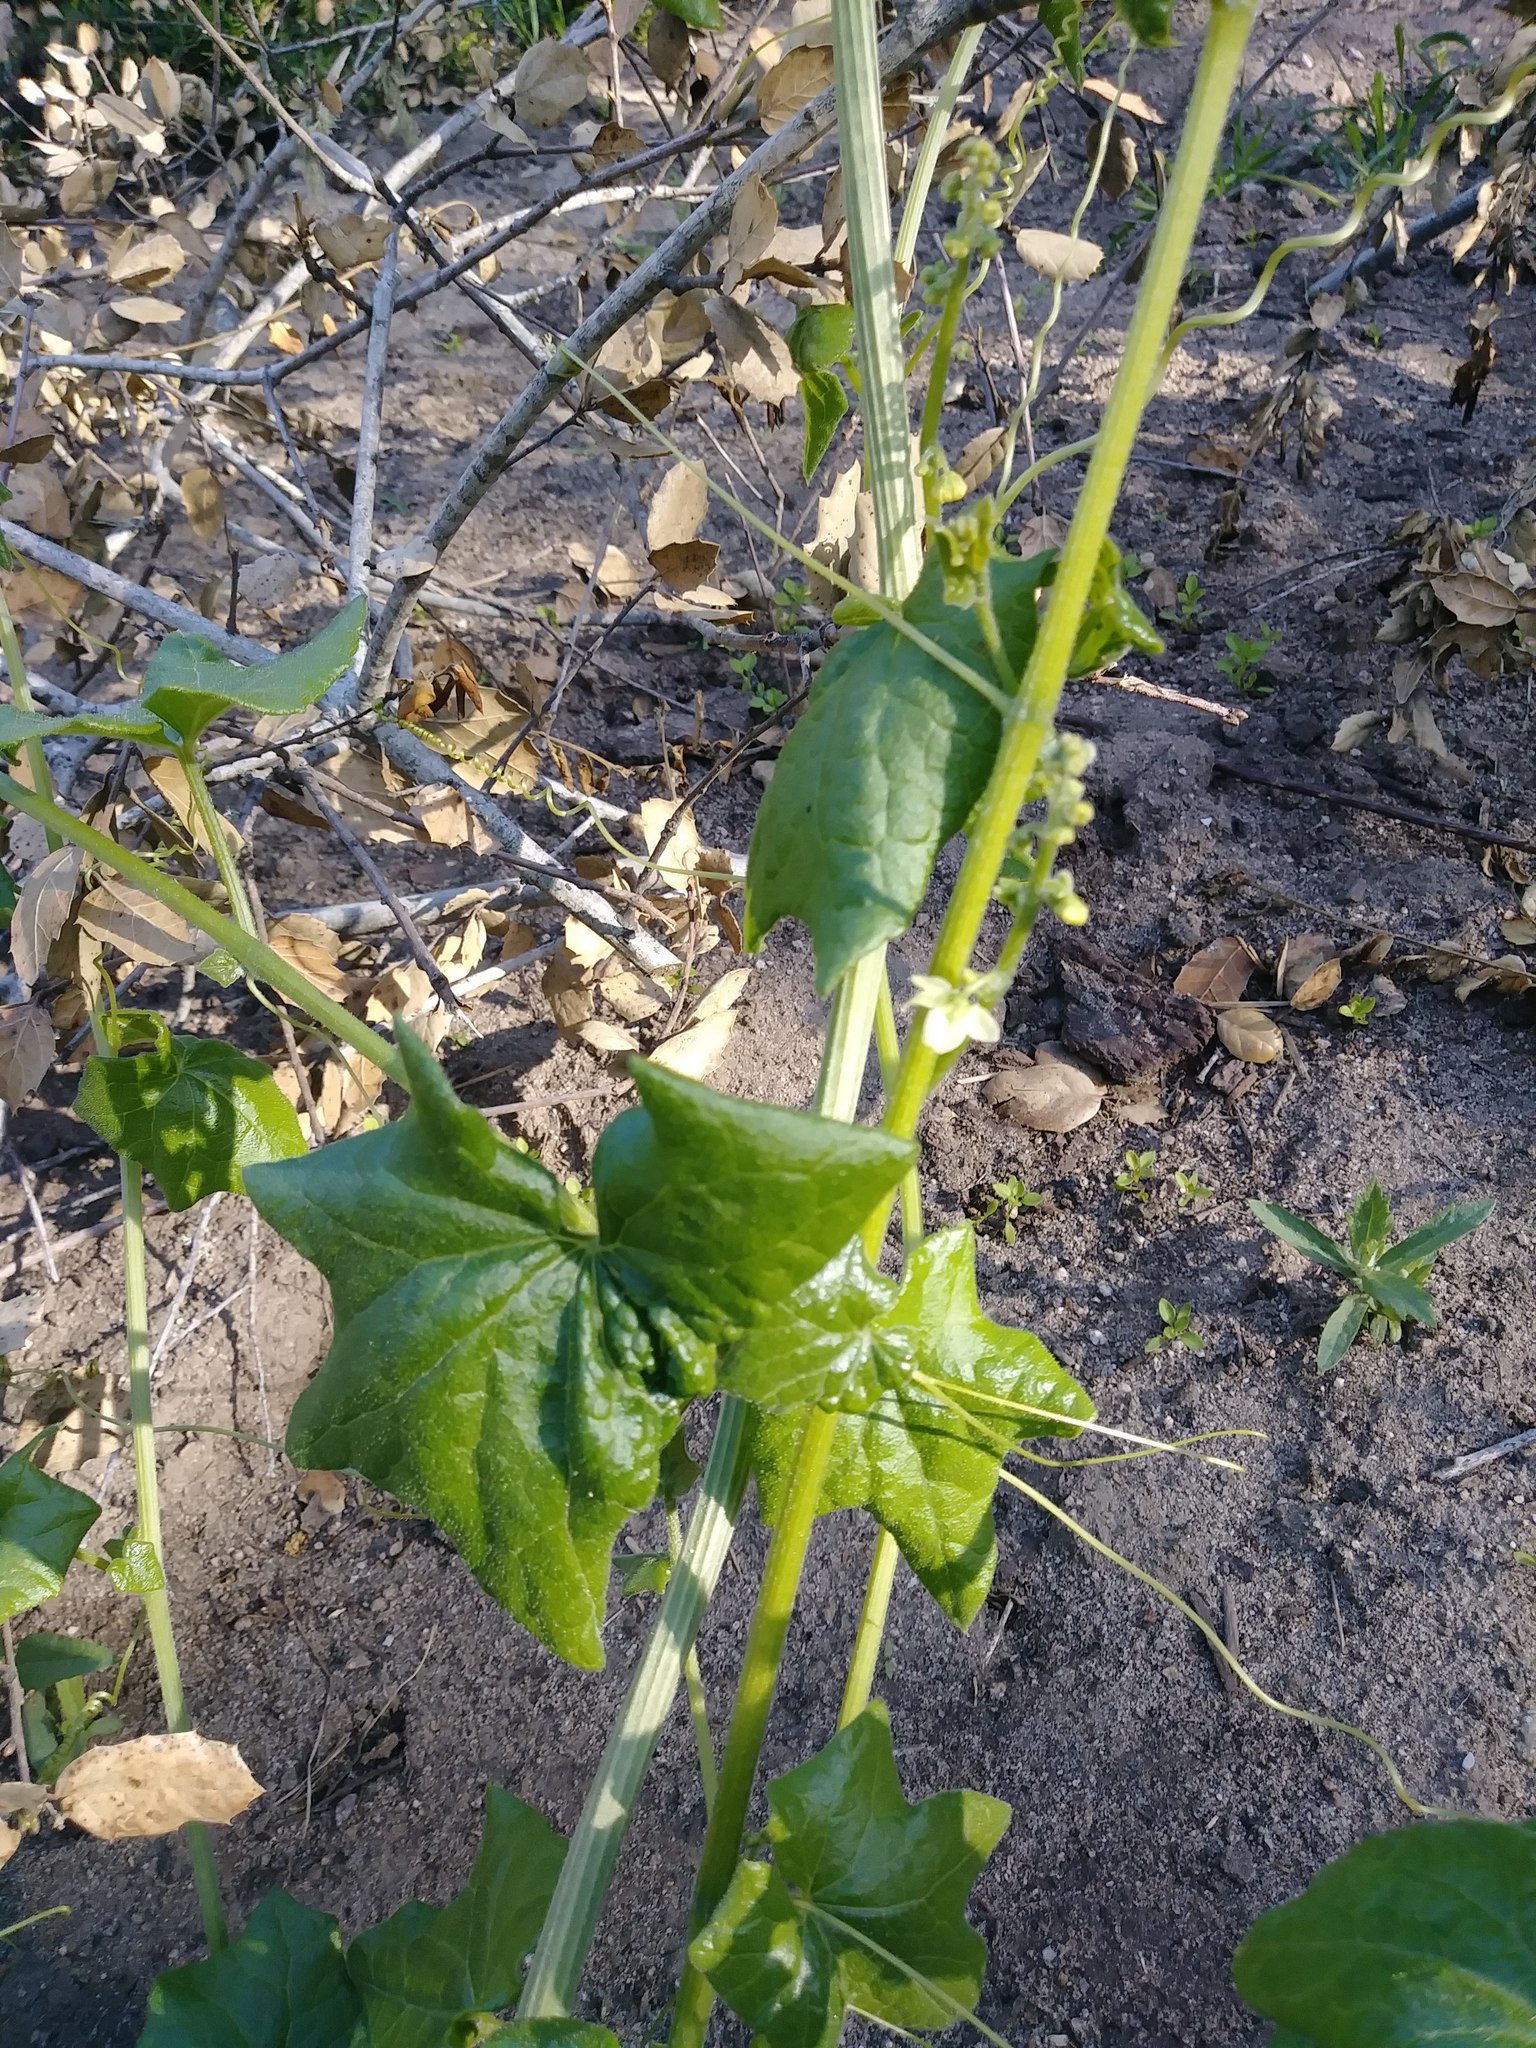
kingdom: Plantae
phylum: Tracheophyta
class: Magnoliopsida
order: Cucurbitales
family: Cucurbitaceae
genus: Marah
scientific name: Marah fabacea
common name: California manroot
